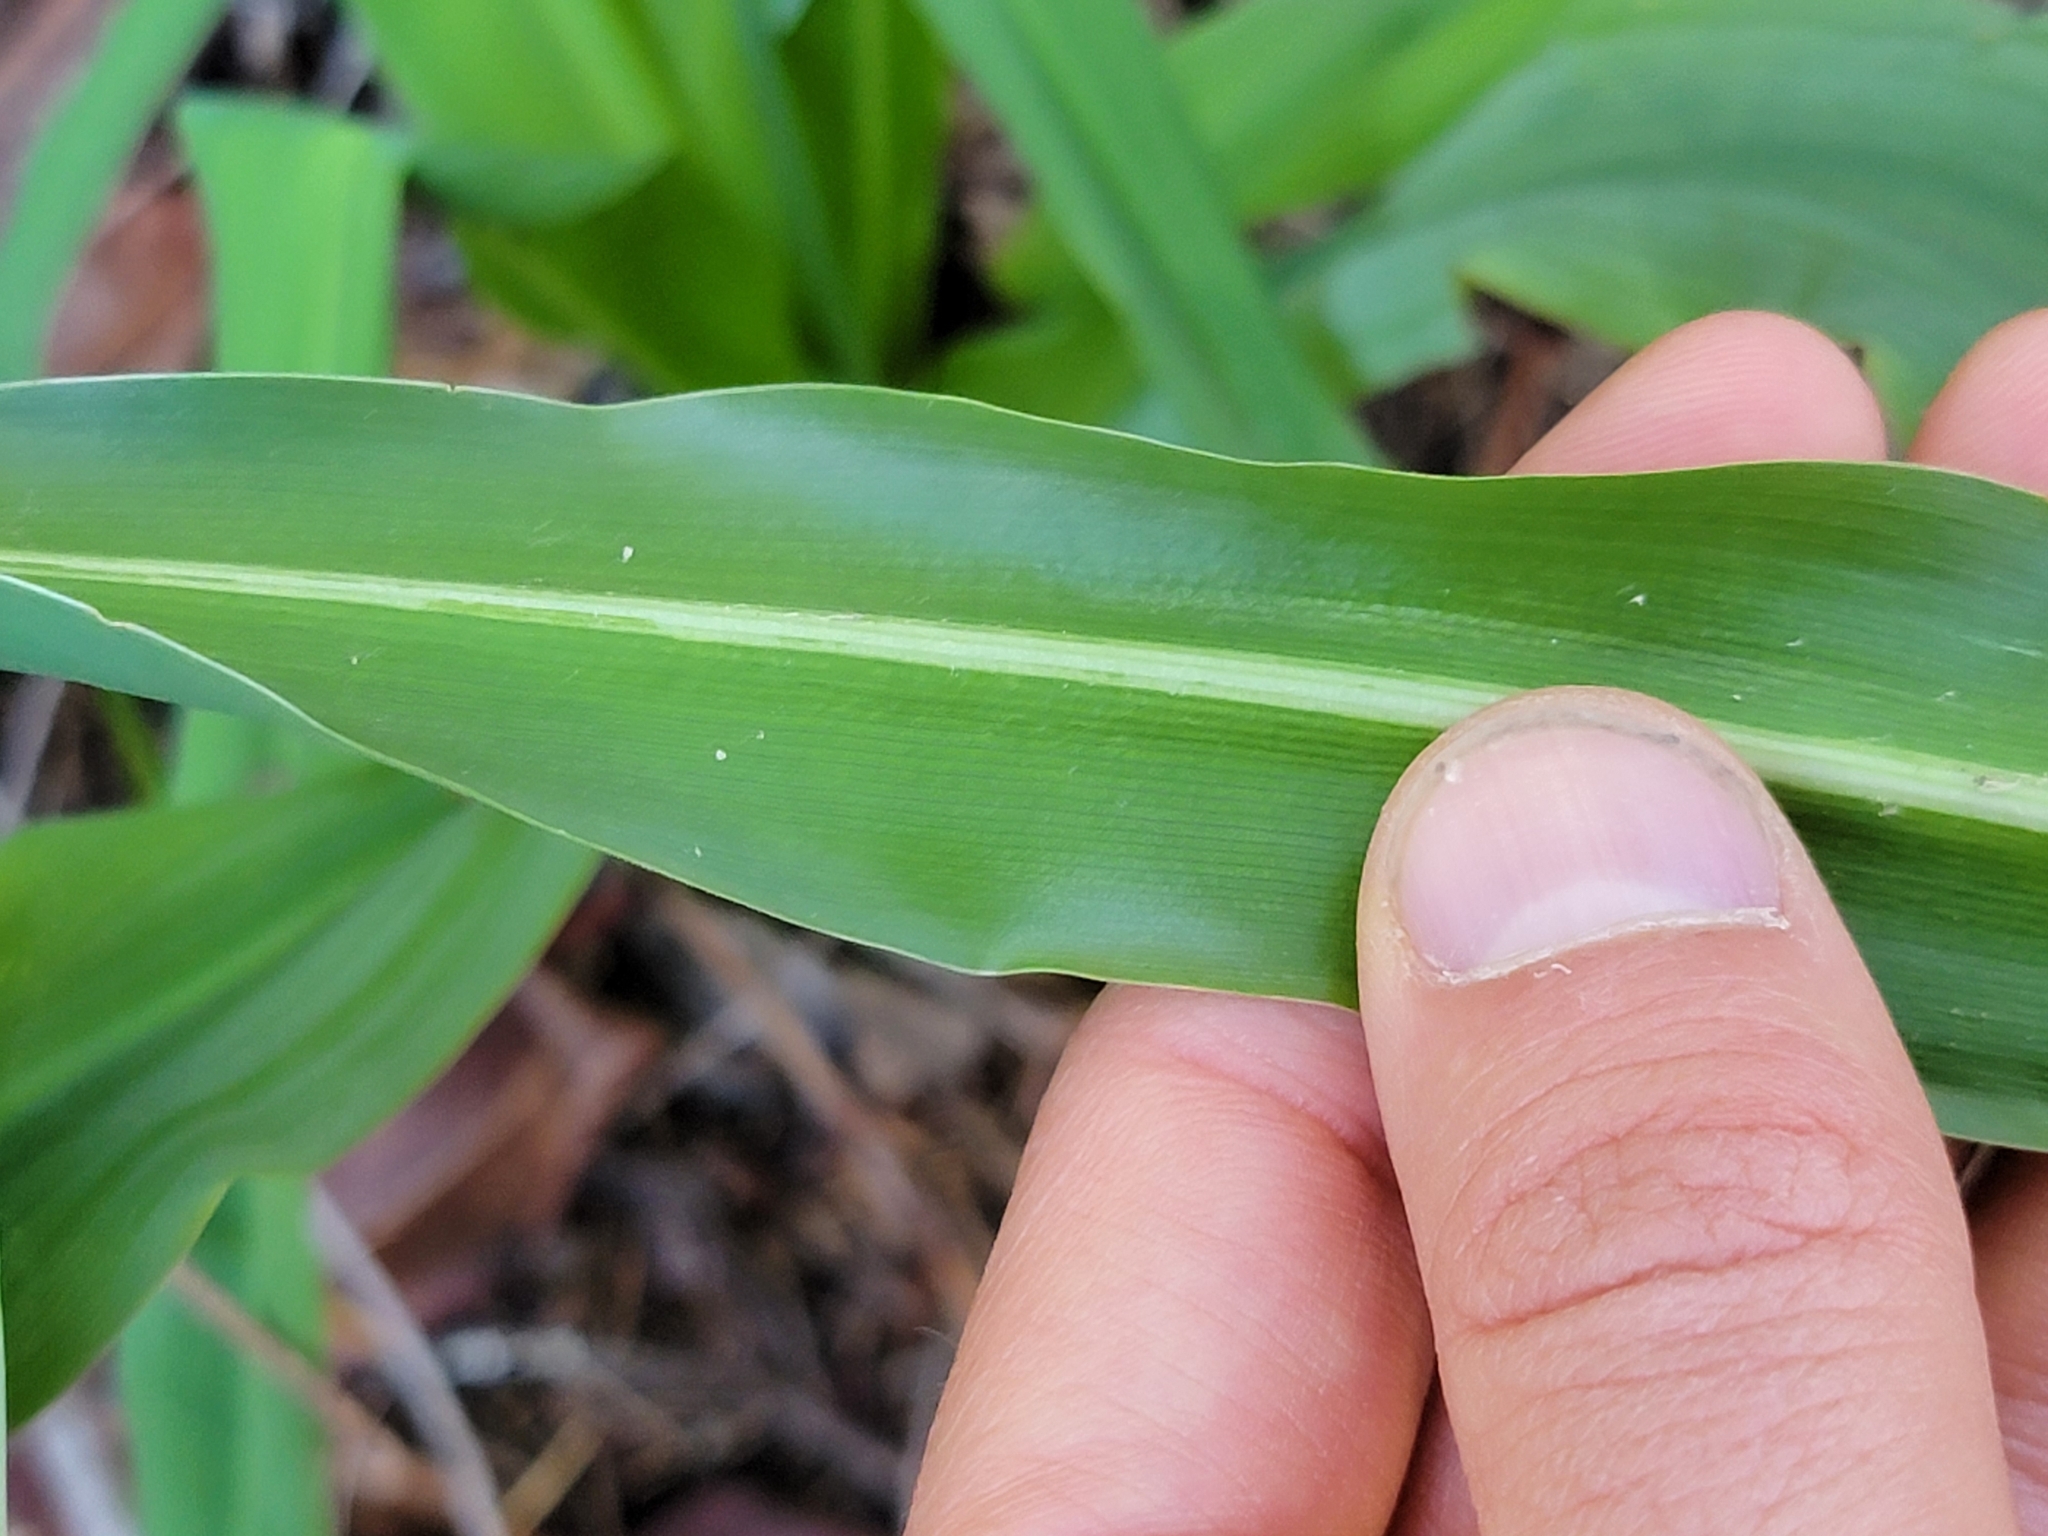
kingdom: Plantae
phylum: Tracheophyta
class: Liliopsida
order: Asparagales
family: Asparagaceae
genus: Chlorogalum
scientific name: Chlorogalum pomeridianum
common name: Amole
